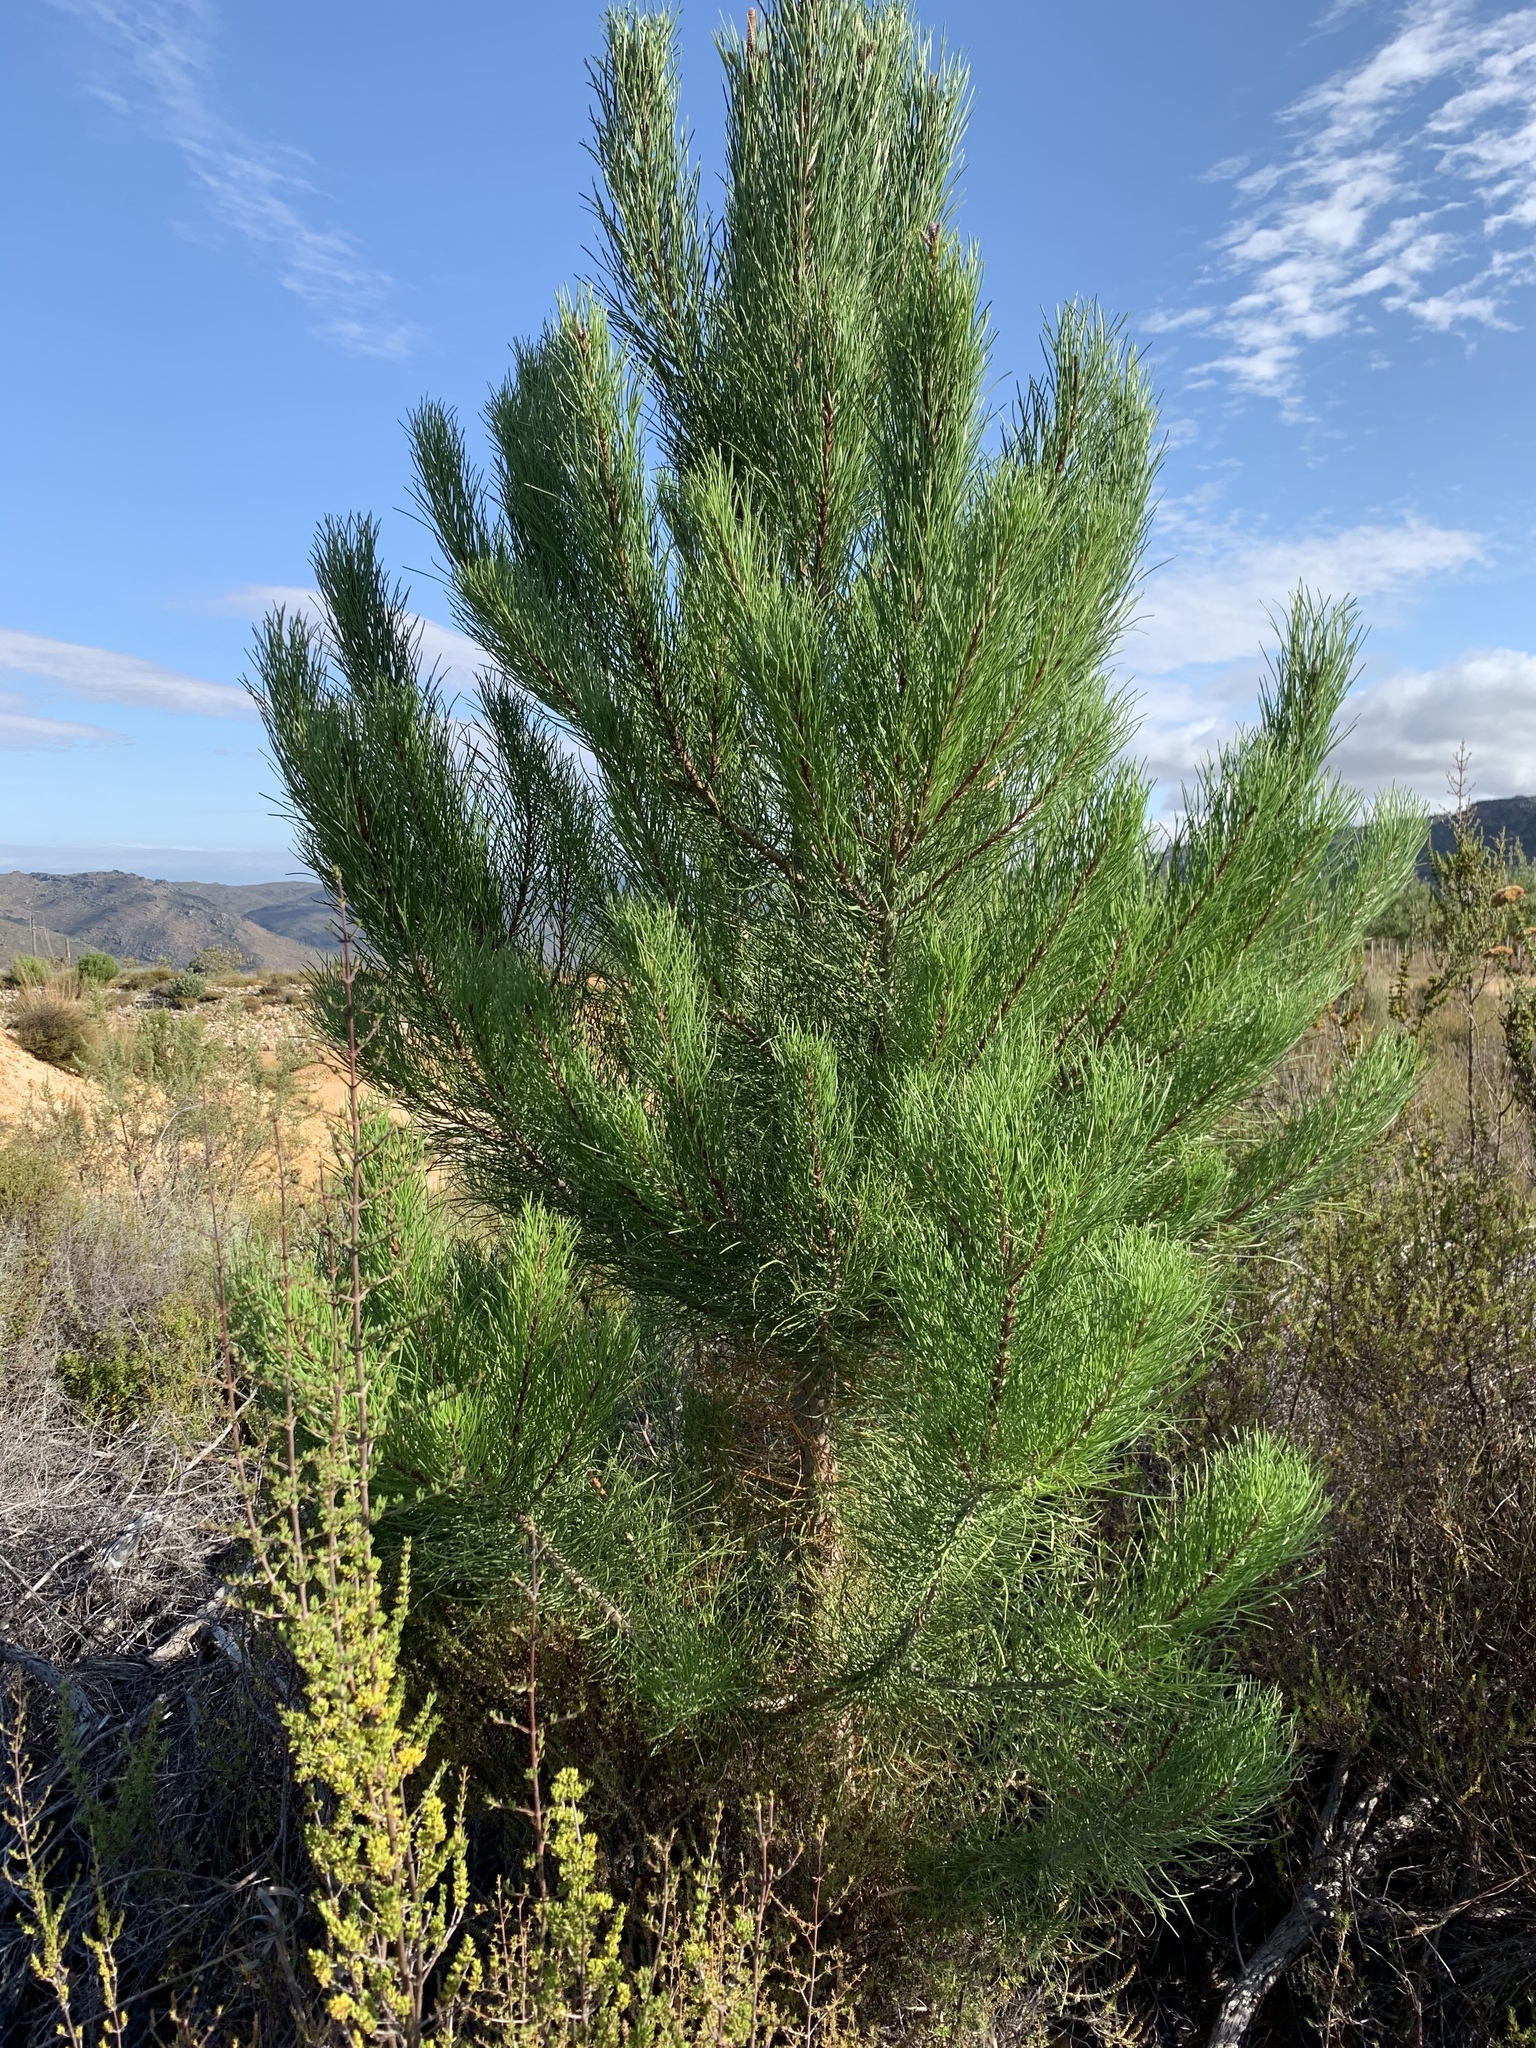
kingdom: Plantae
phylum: Tracheophyta
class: Pinopsida
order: Pinales
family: Pinaceae
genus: Pinus
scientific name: Pinus pinaster
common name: Maritime pine
